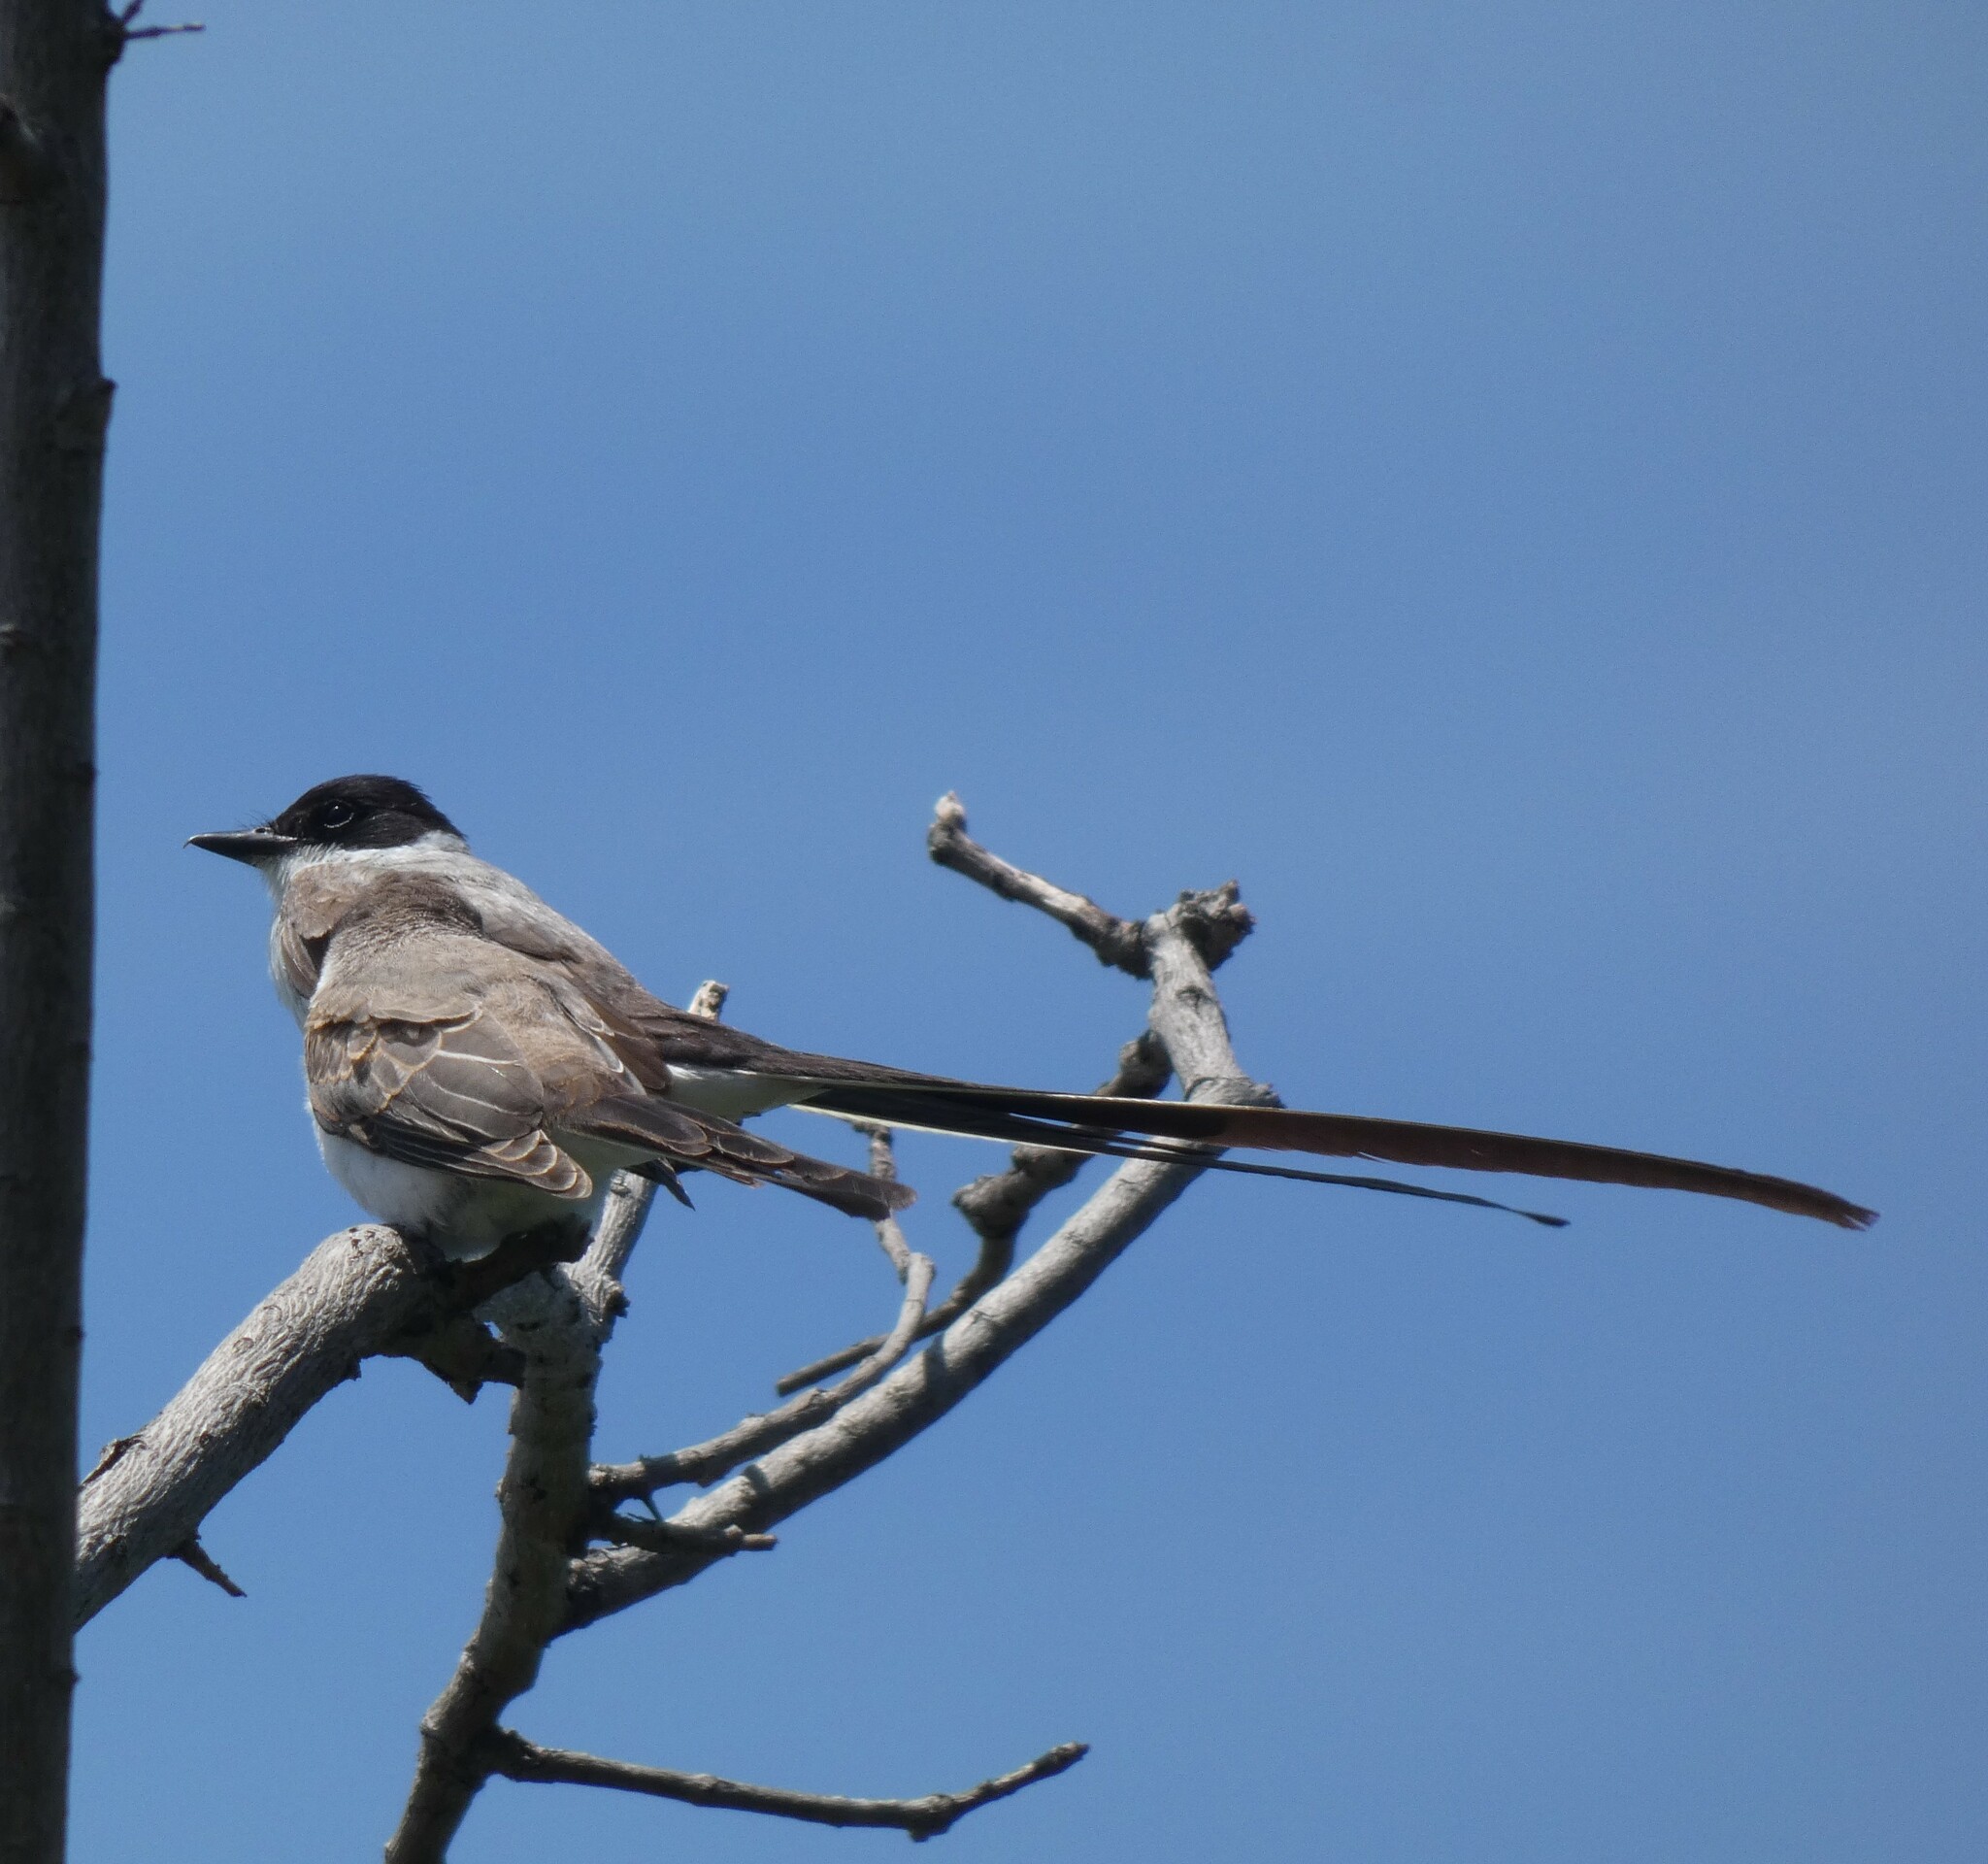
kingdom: Animalia
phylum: Chordata
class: Aves
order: Passeriformes
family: Tyrannidae
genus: Tyrannus
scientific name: Tyrannus savana
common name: Fork-tailed flycatcher
